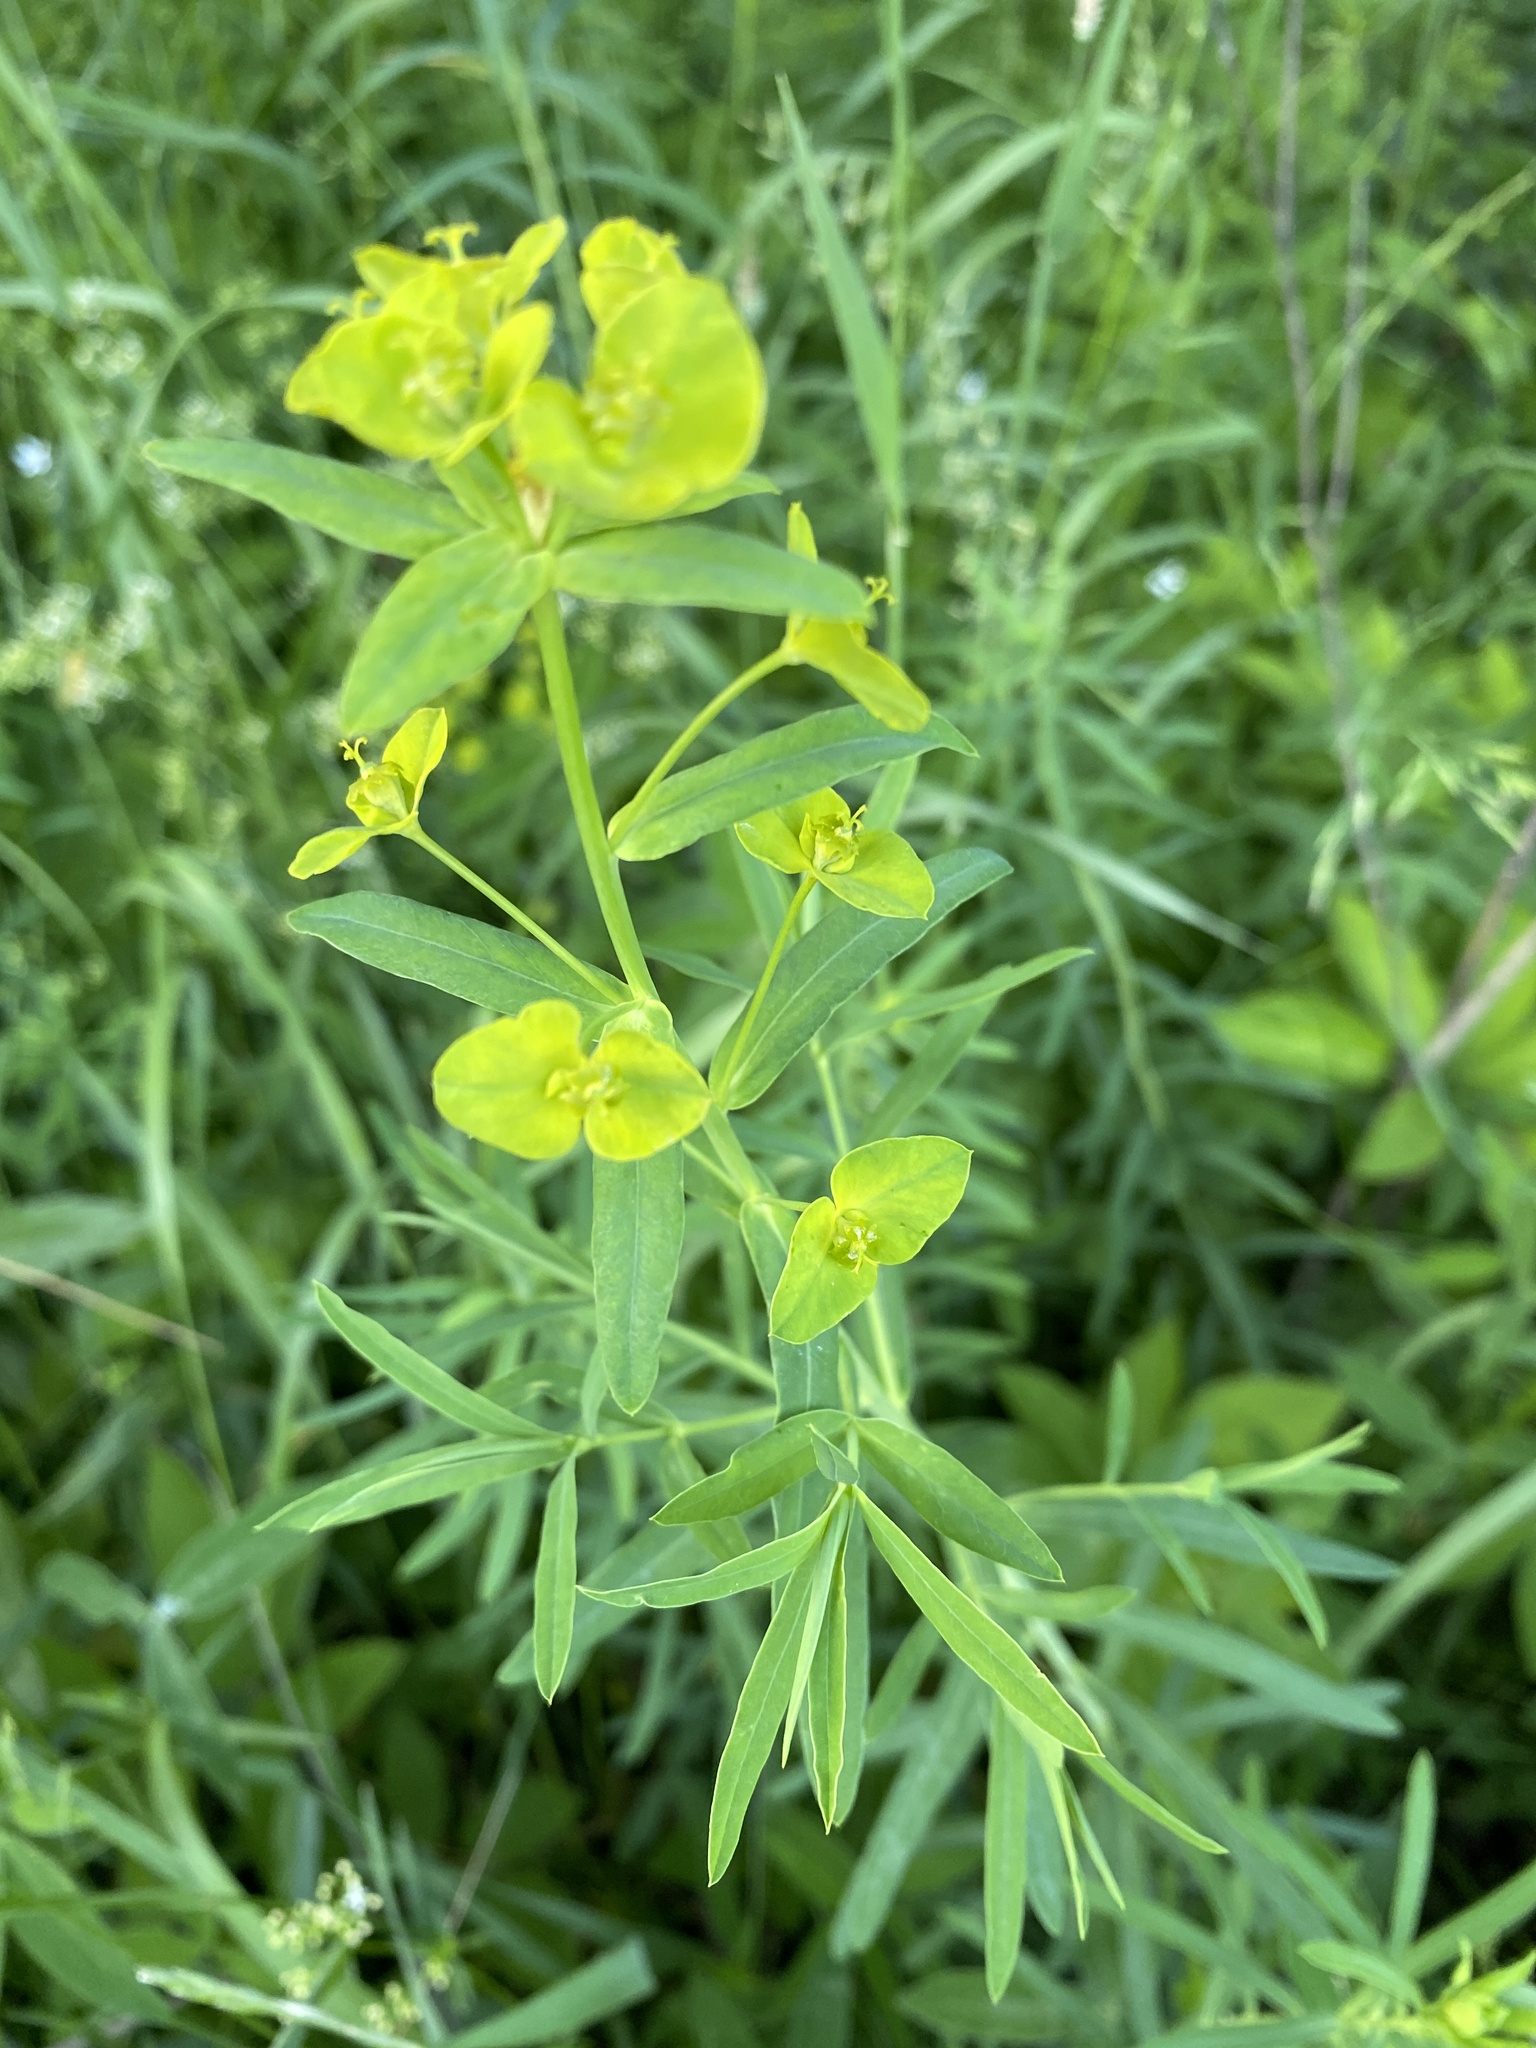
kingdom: Plantae
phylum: Tracheophyta
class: Magnoliopsida
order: Malpighiales
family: Euphorbiaceae
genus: Euphorbia
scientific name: Euphorbia virgata
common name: Leafy spurge
